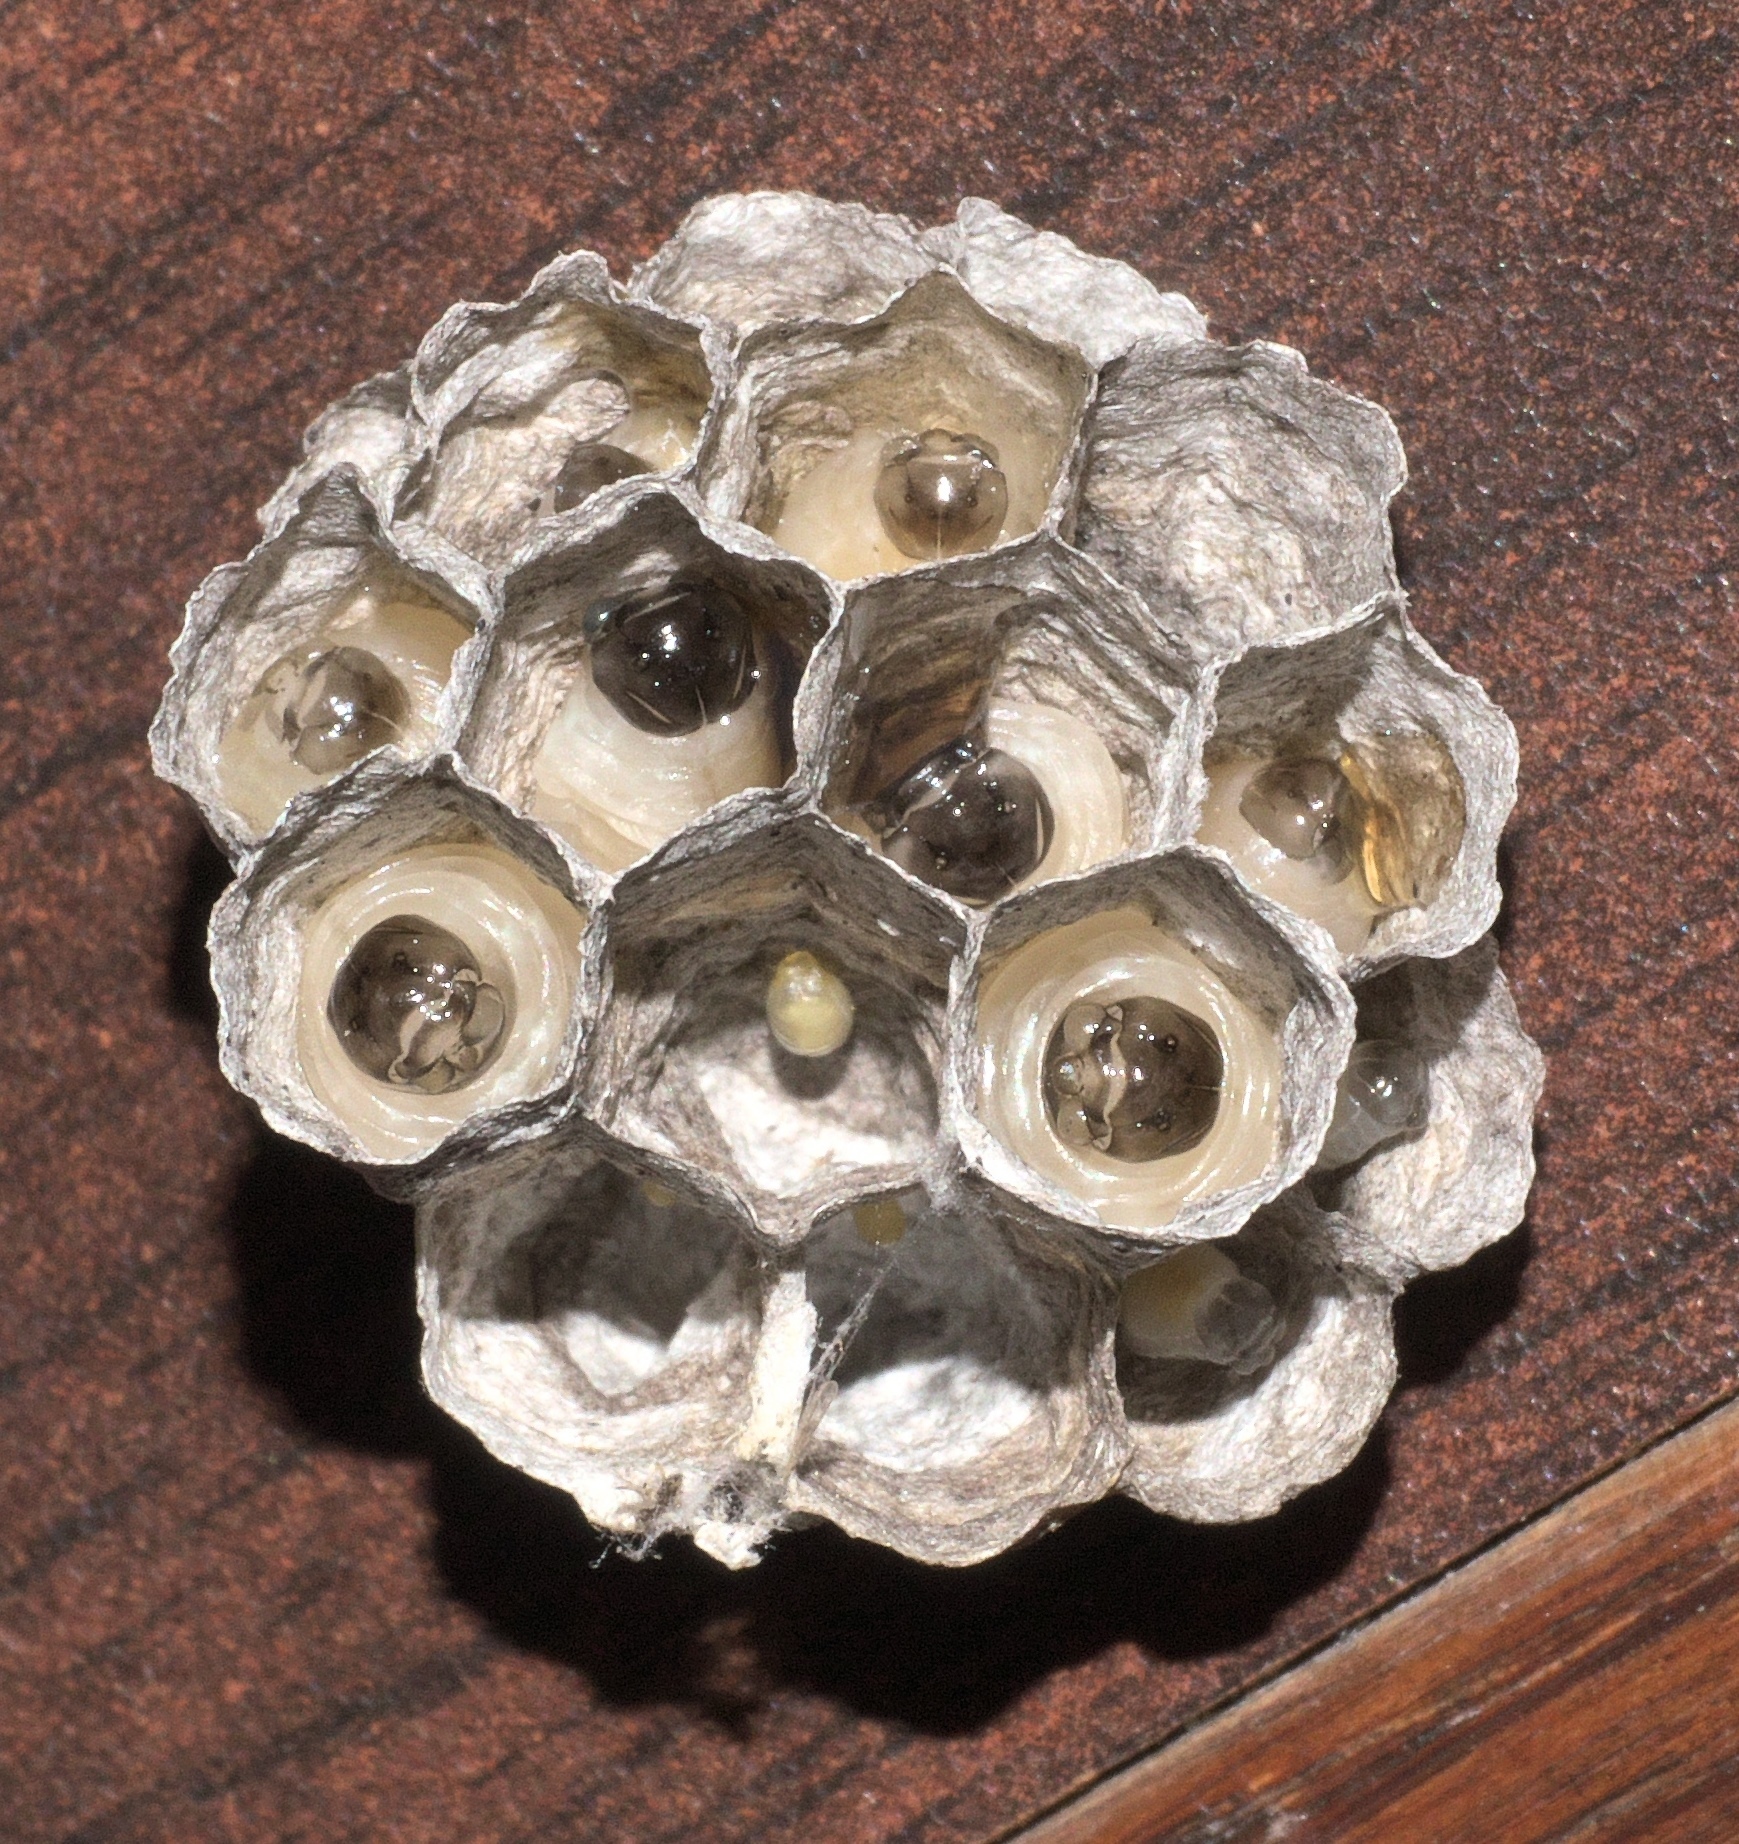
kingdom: Animalia
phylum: Arthropoda
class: Insecta
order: Hymenoptera
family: Eumenidae
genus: Polistes
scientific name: Polistes
